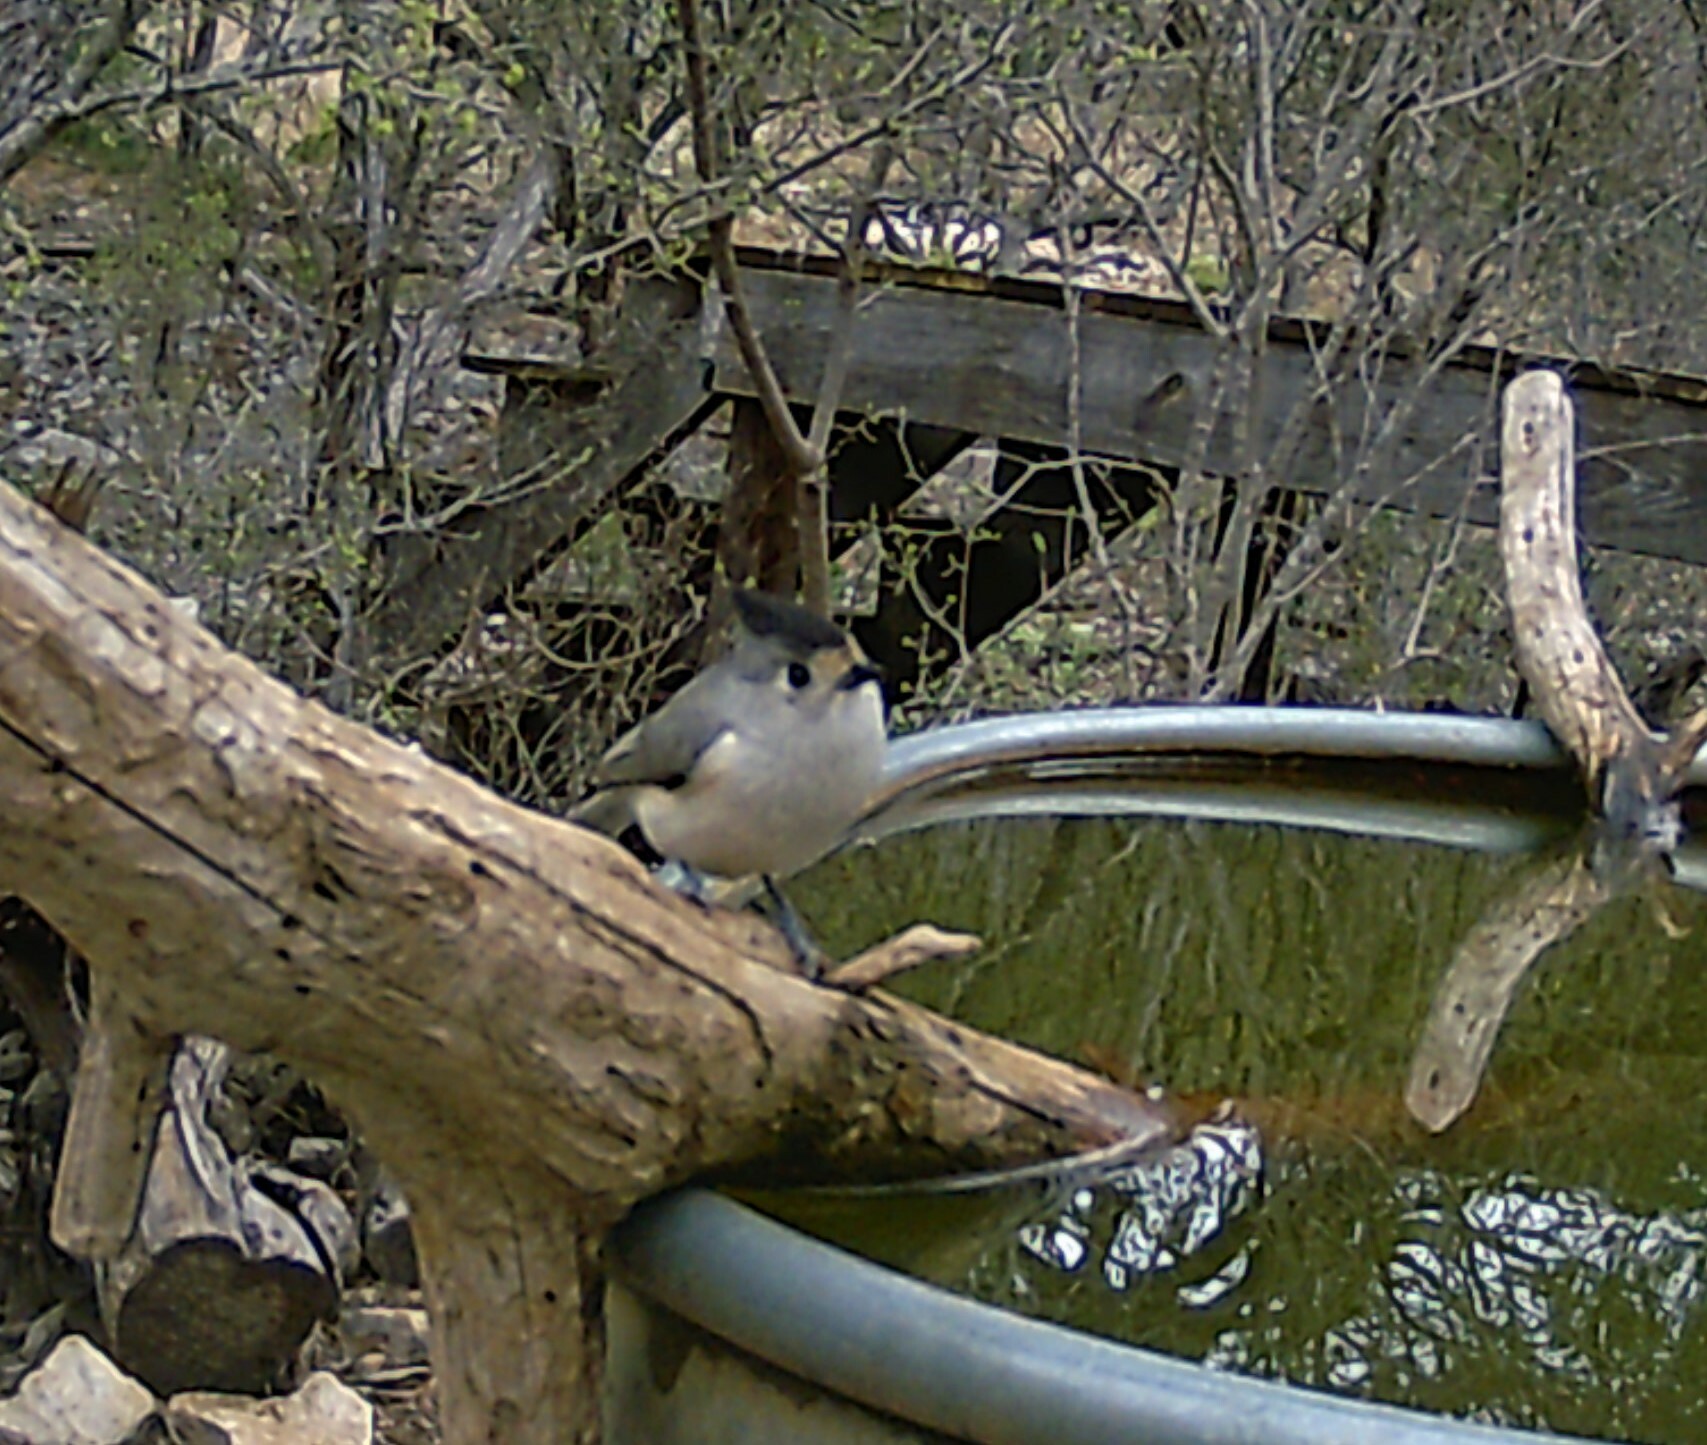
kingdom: Animalia
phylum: Chordata
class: Aves
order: Passeriformes
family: Paridae
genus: Baeolophus
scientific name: Baeolophus atricristatus
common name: Black-crested titmouse
